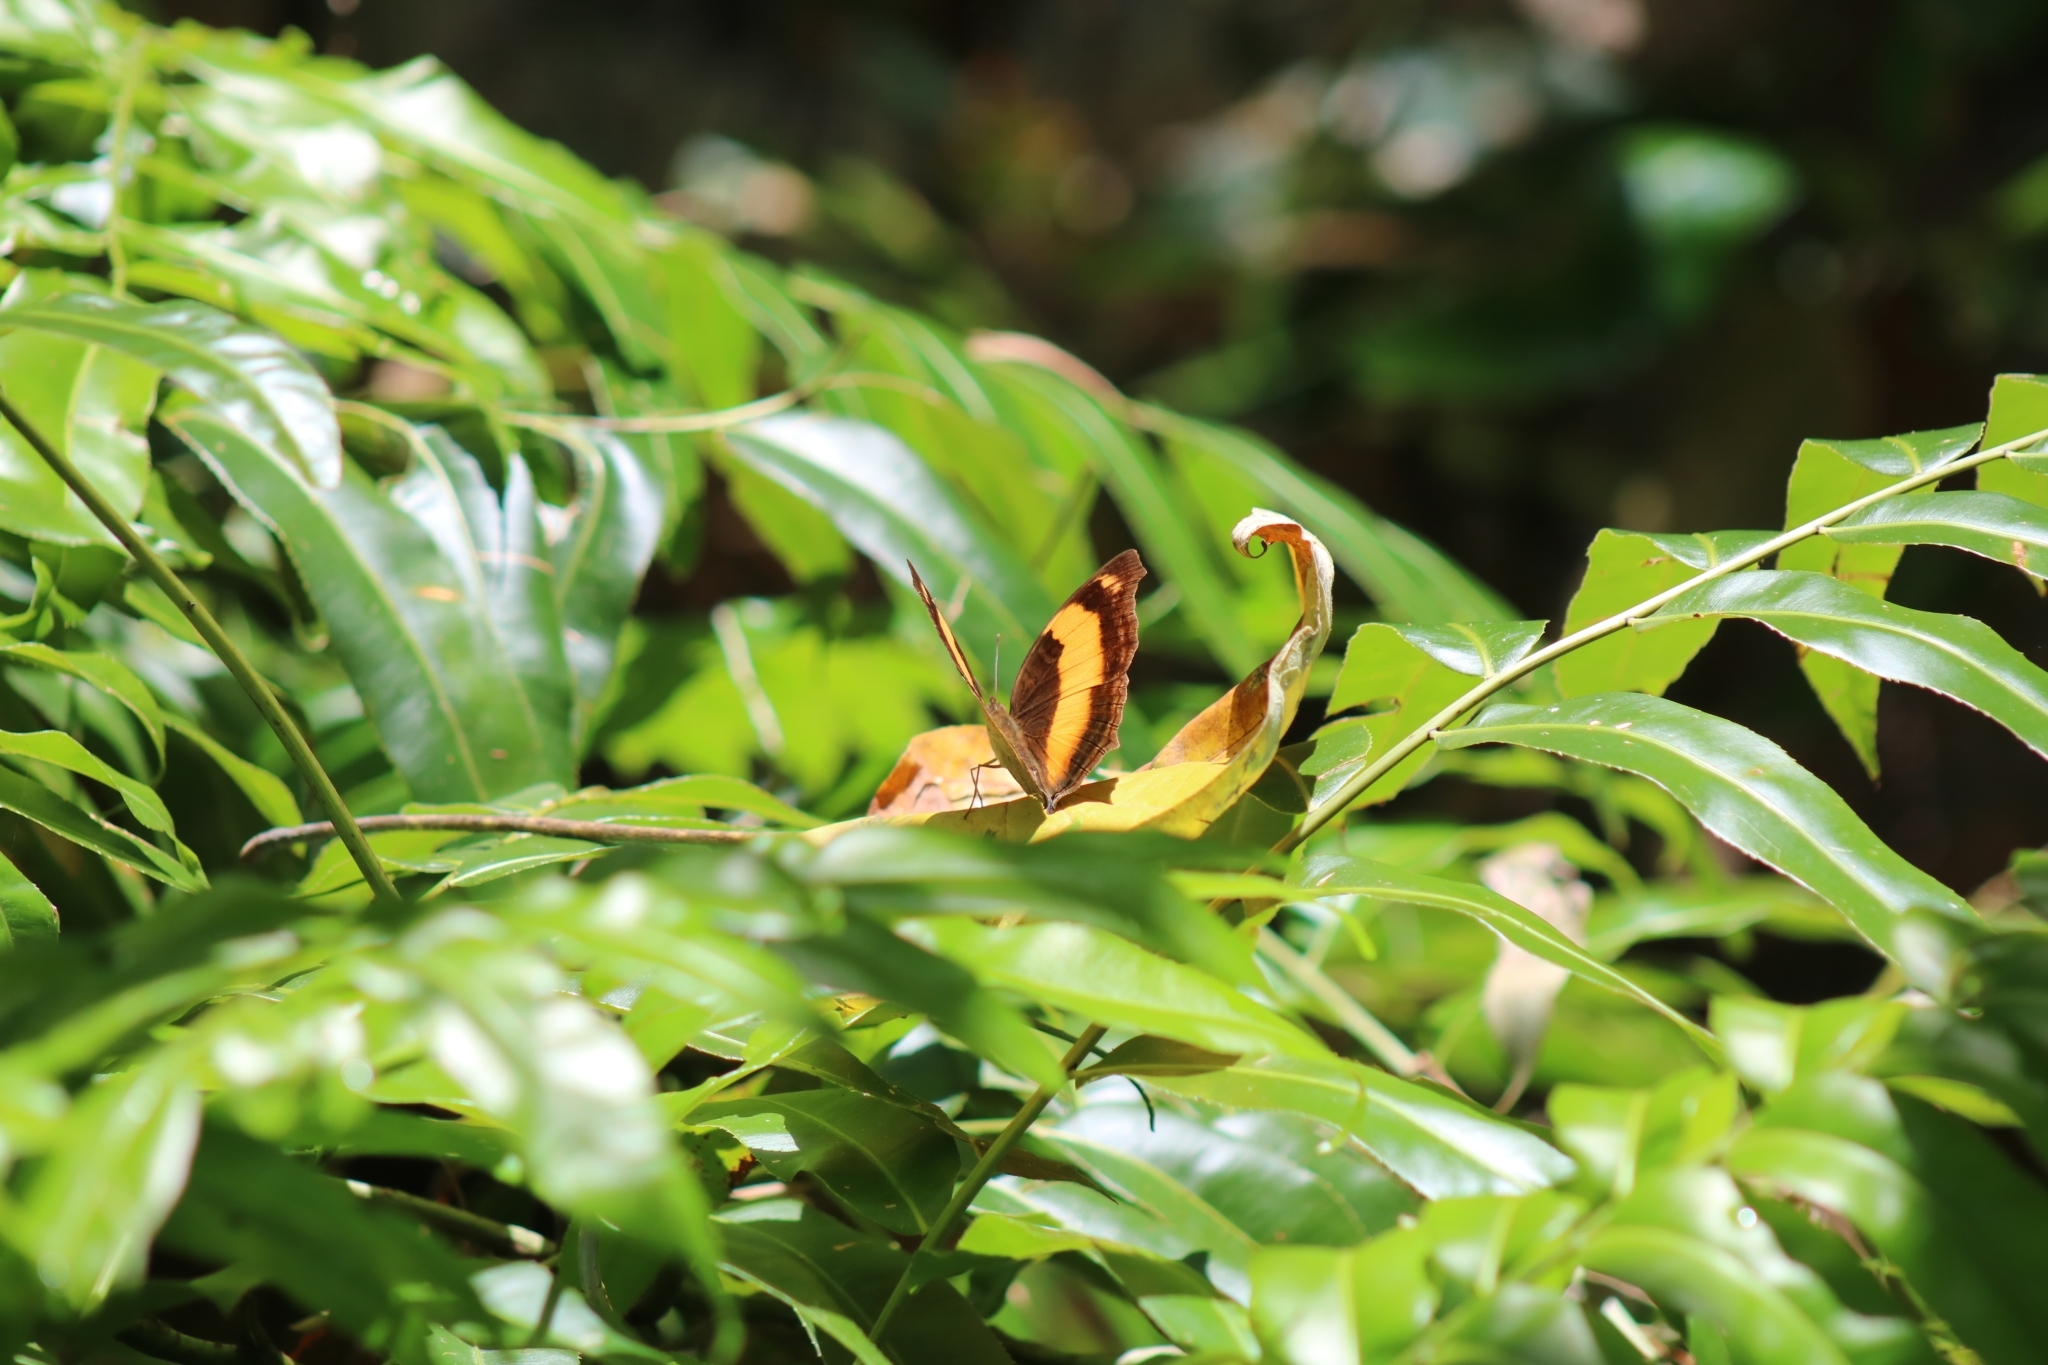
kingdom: Animalia
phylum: Arthropoda
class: Insecta
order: Lepidoptera
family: Nymphalidae
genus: Yoma
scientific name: Yoma sabina
